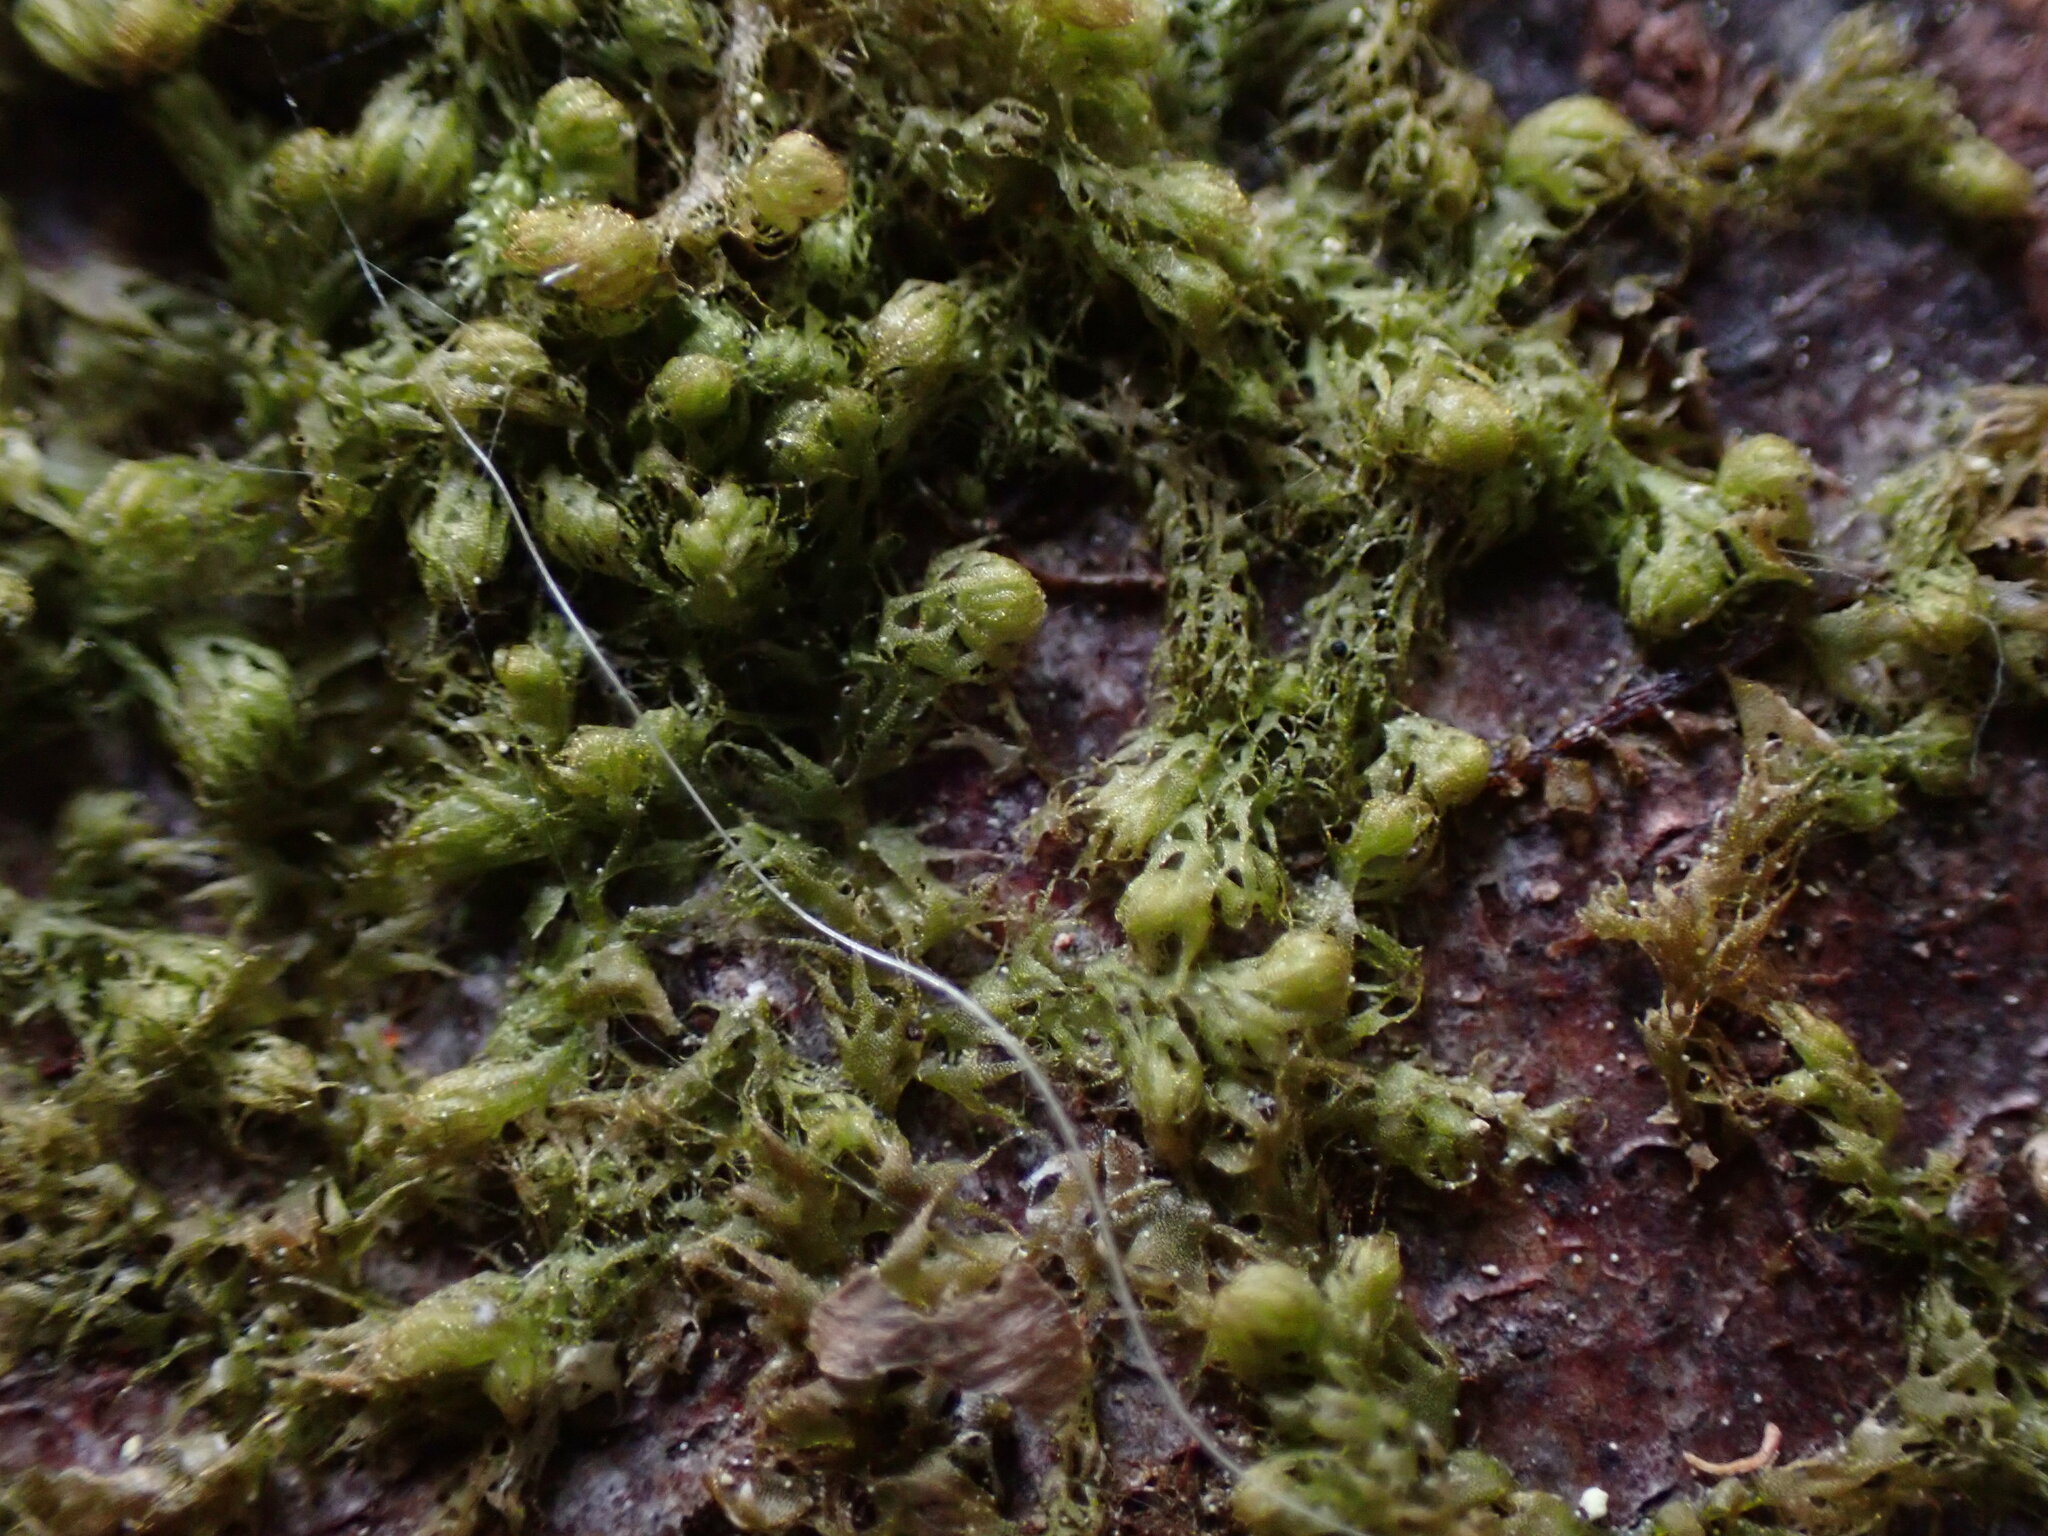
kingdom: Plantae
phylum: Marchantiophyta
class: Jungermanniopsida
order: Ptilidiales
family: Ptilidiaceae
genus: Ptilidium
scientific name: Ptilidium californicum
